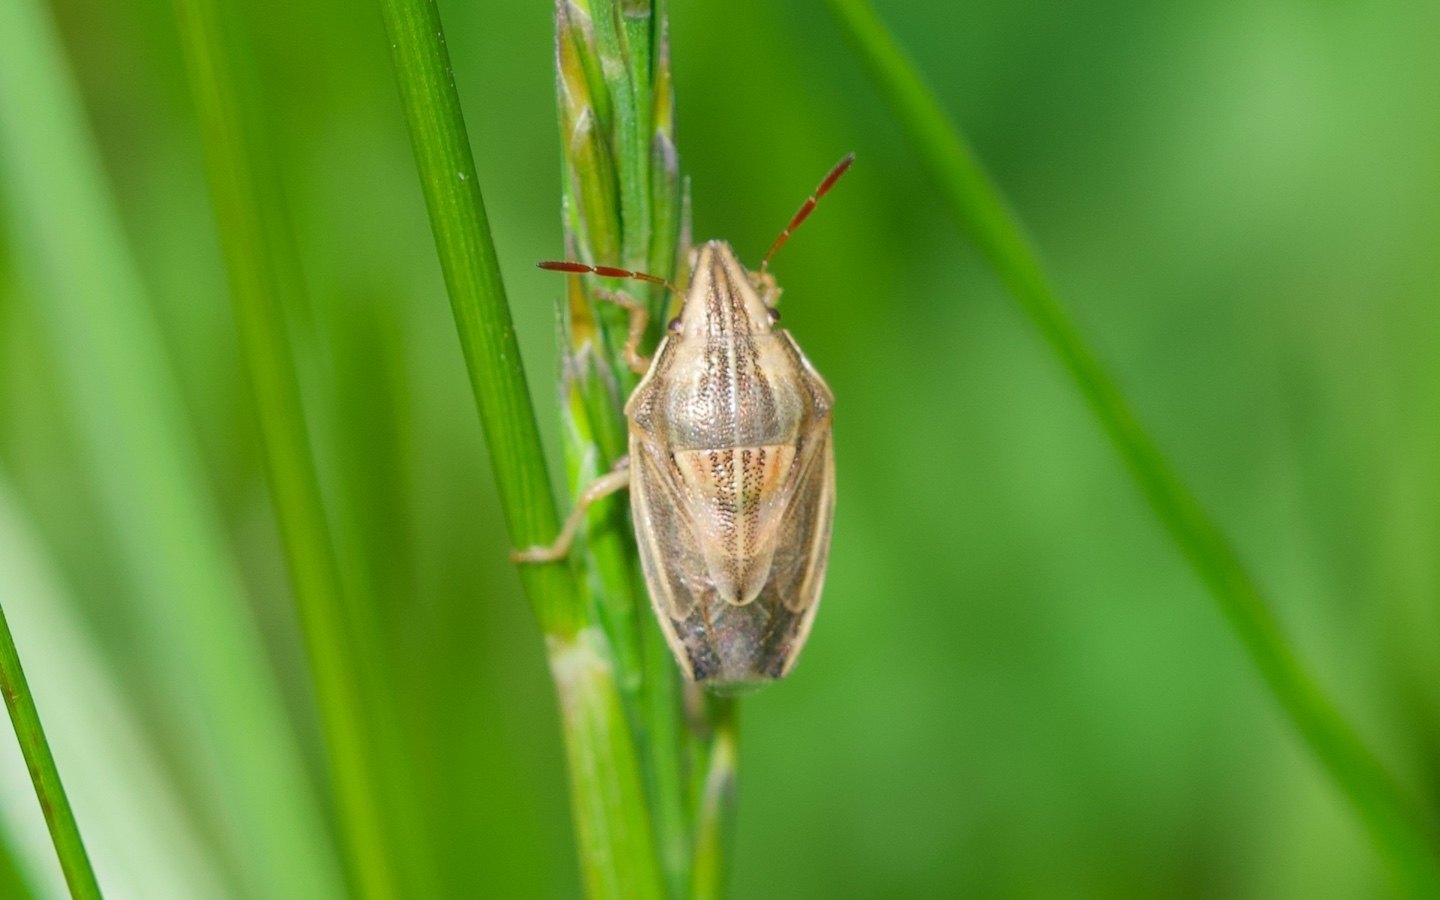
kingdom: Animalia
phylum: Arthropoda
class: Insecta
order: Hemiptera
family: Pentatomidae
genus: Aelia
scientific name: Aelia acuminata
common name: Bishop's mitre
